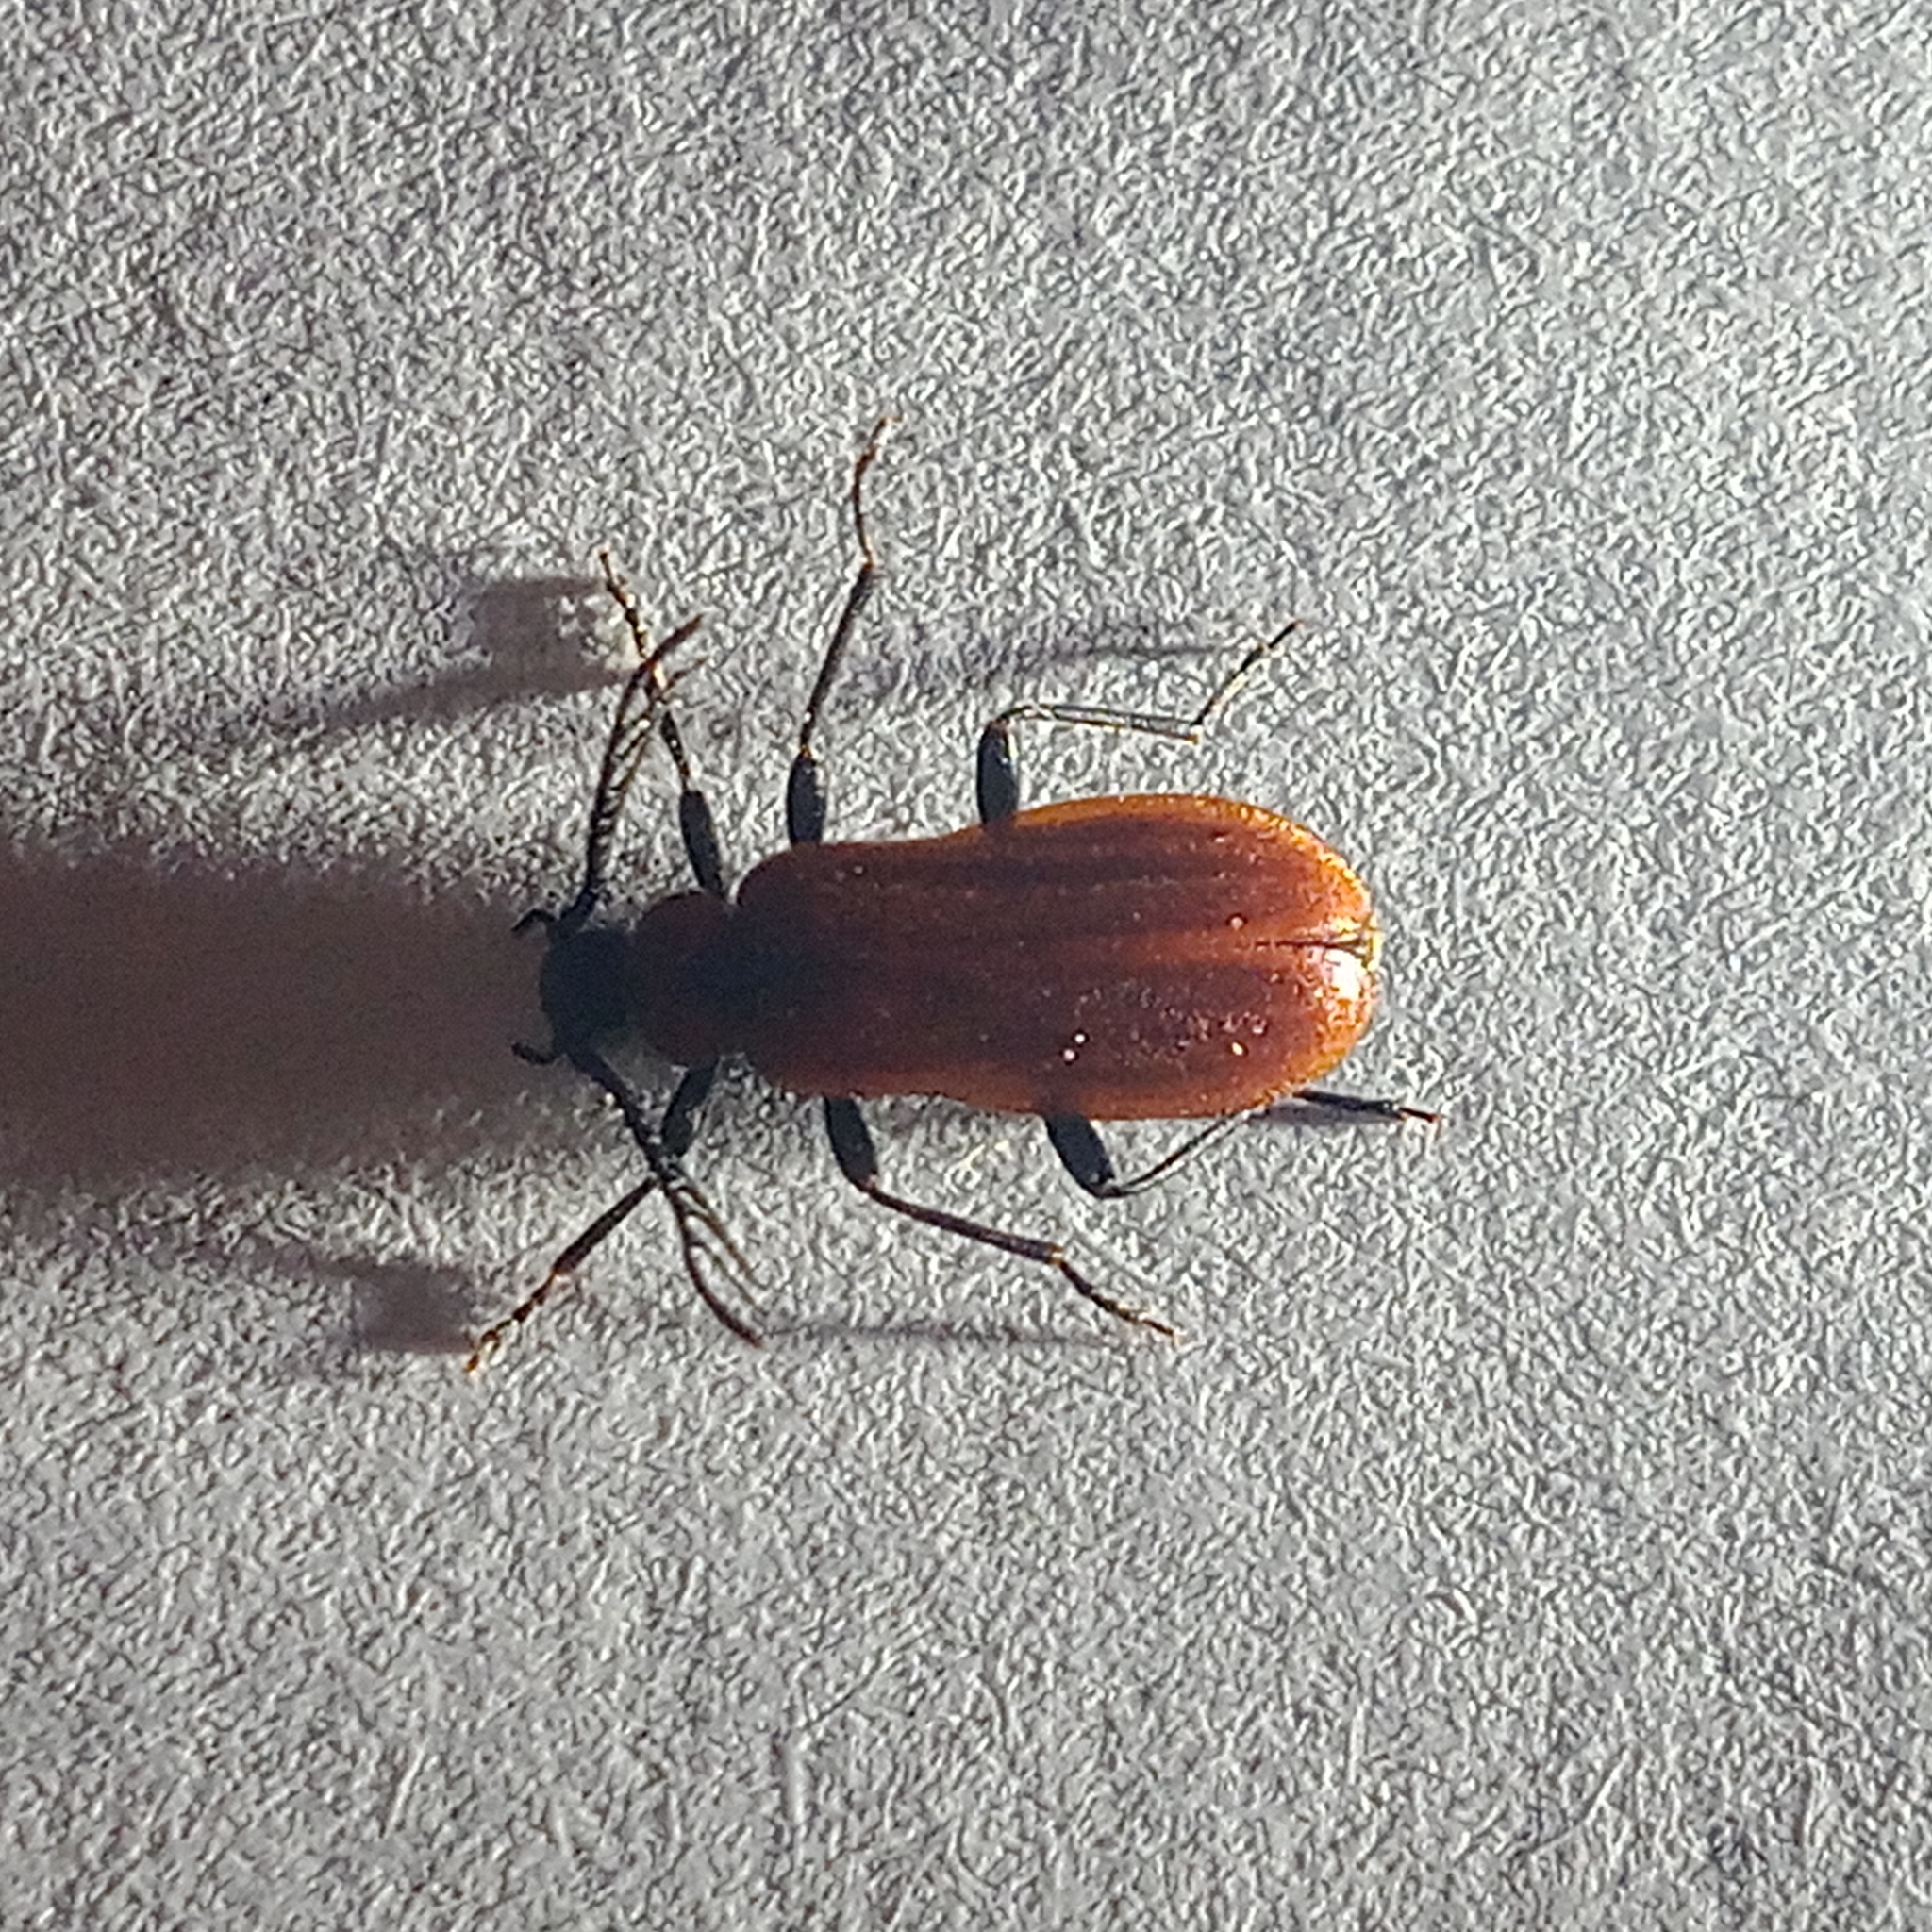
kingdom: Animalia
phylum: Arthropoda
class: Insecta
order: Coleoptera
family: Pyrochroidae
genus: Schizotus
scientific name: Schizotus pectinicornis
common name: Scarce cardinal beetle
